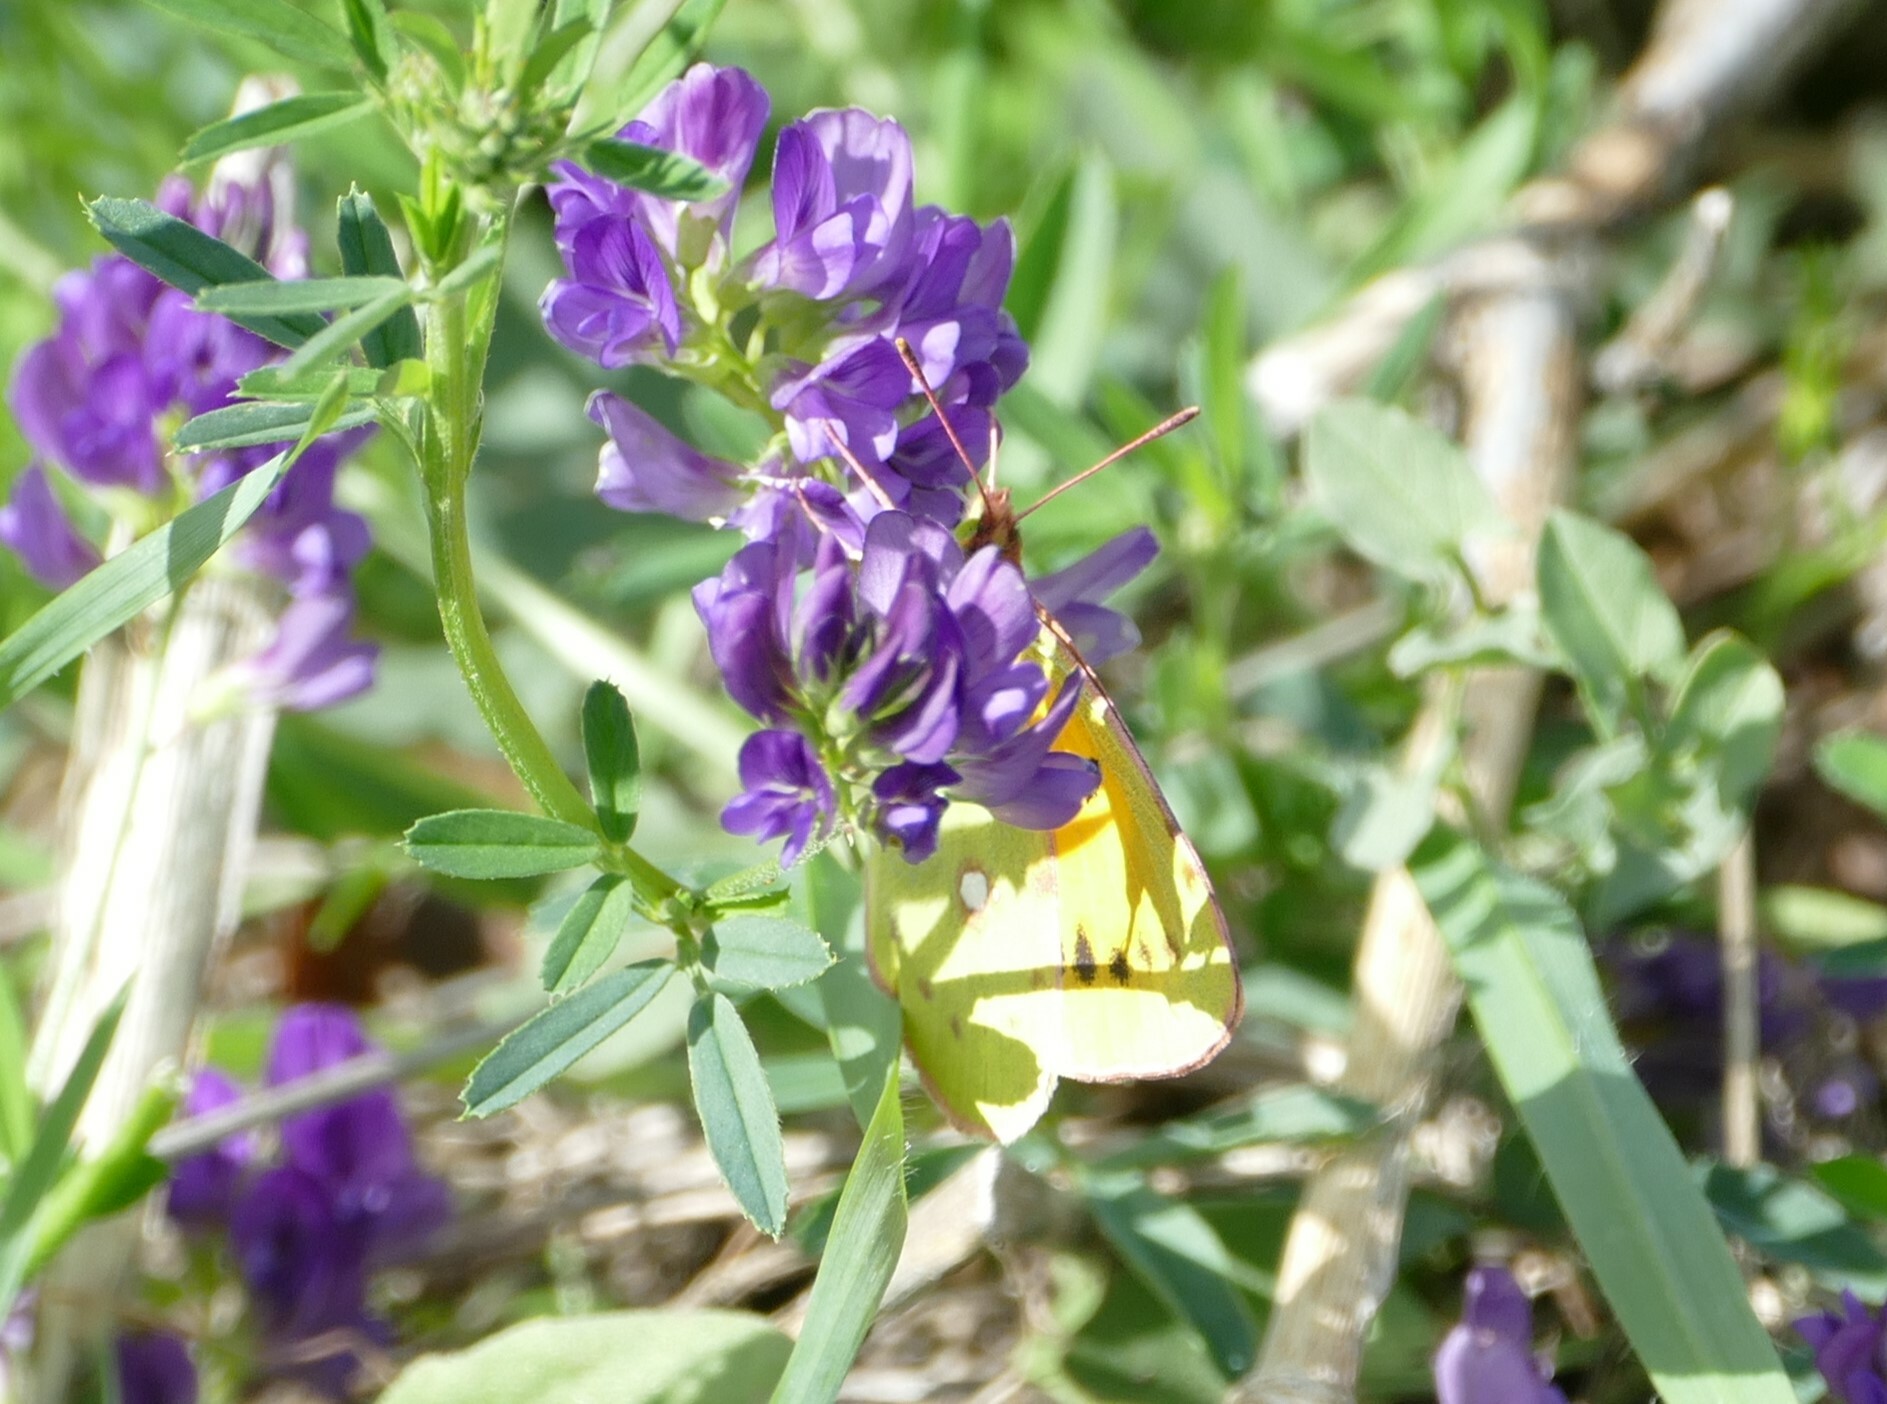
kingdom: Animalia
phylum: Arthropoda
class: Insecta
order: Lepidoptera
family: Pieridae
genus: Colias
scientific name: Colias croceus
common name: Clouded yellow
